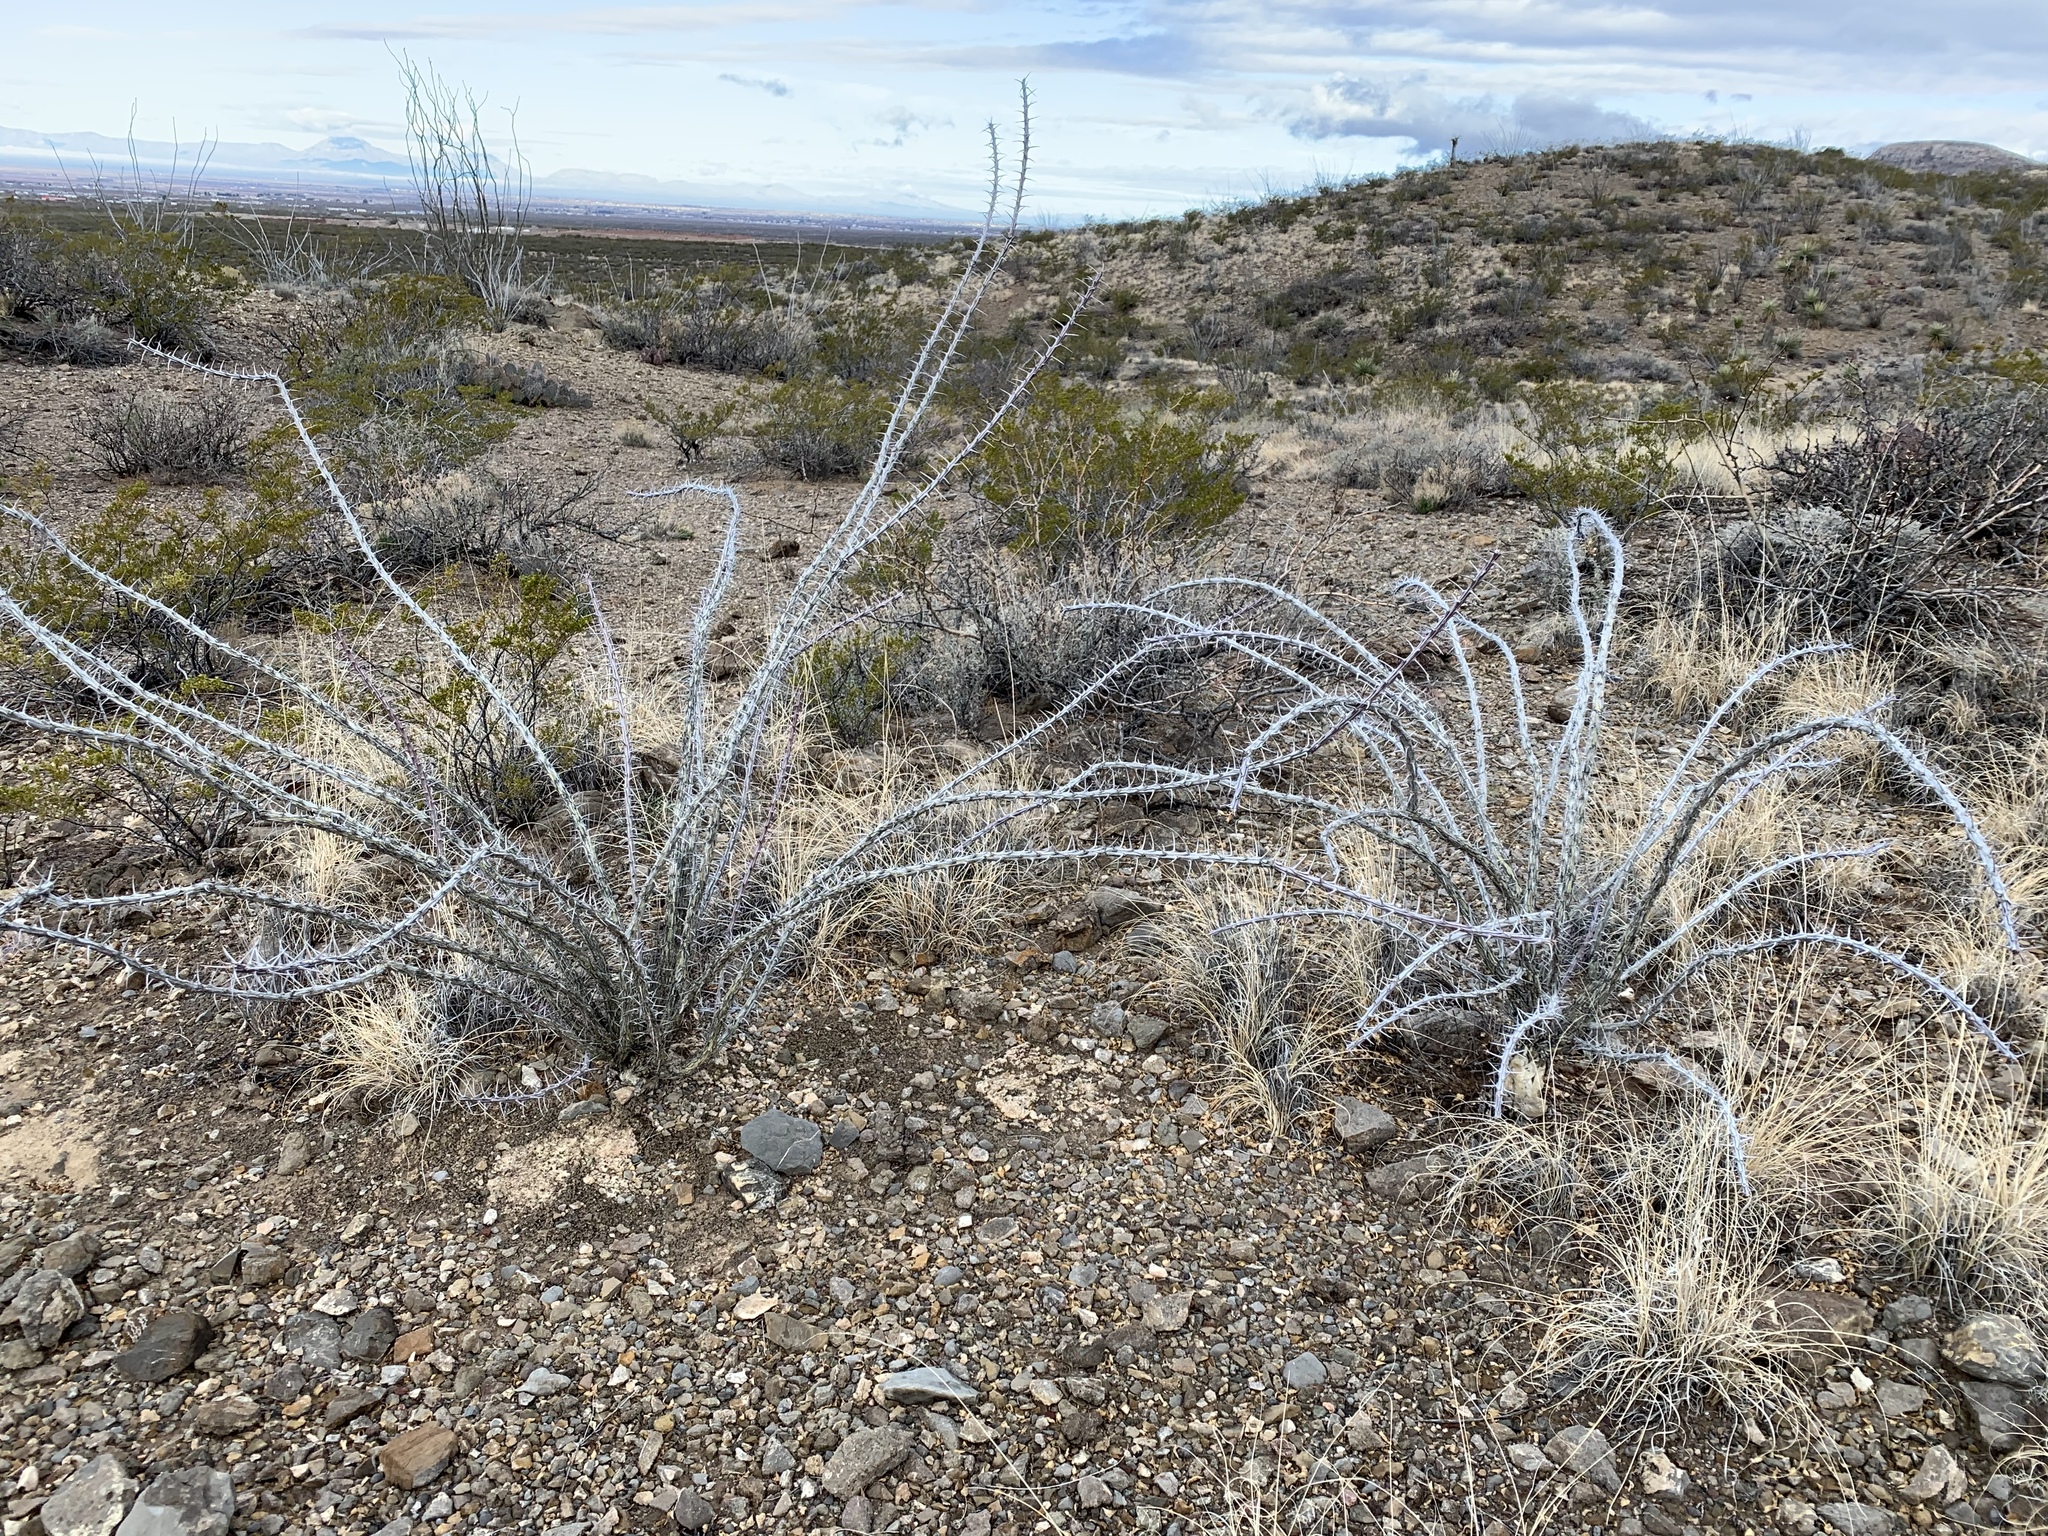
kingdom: Plantae
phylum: Tracheophyta
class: Magnoliopsida
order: Ericales
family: Fouquieriaceae
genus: Fouquieria
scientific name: Fouquieria splendens
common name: Vine-cactus
